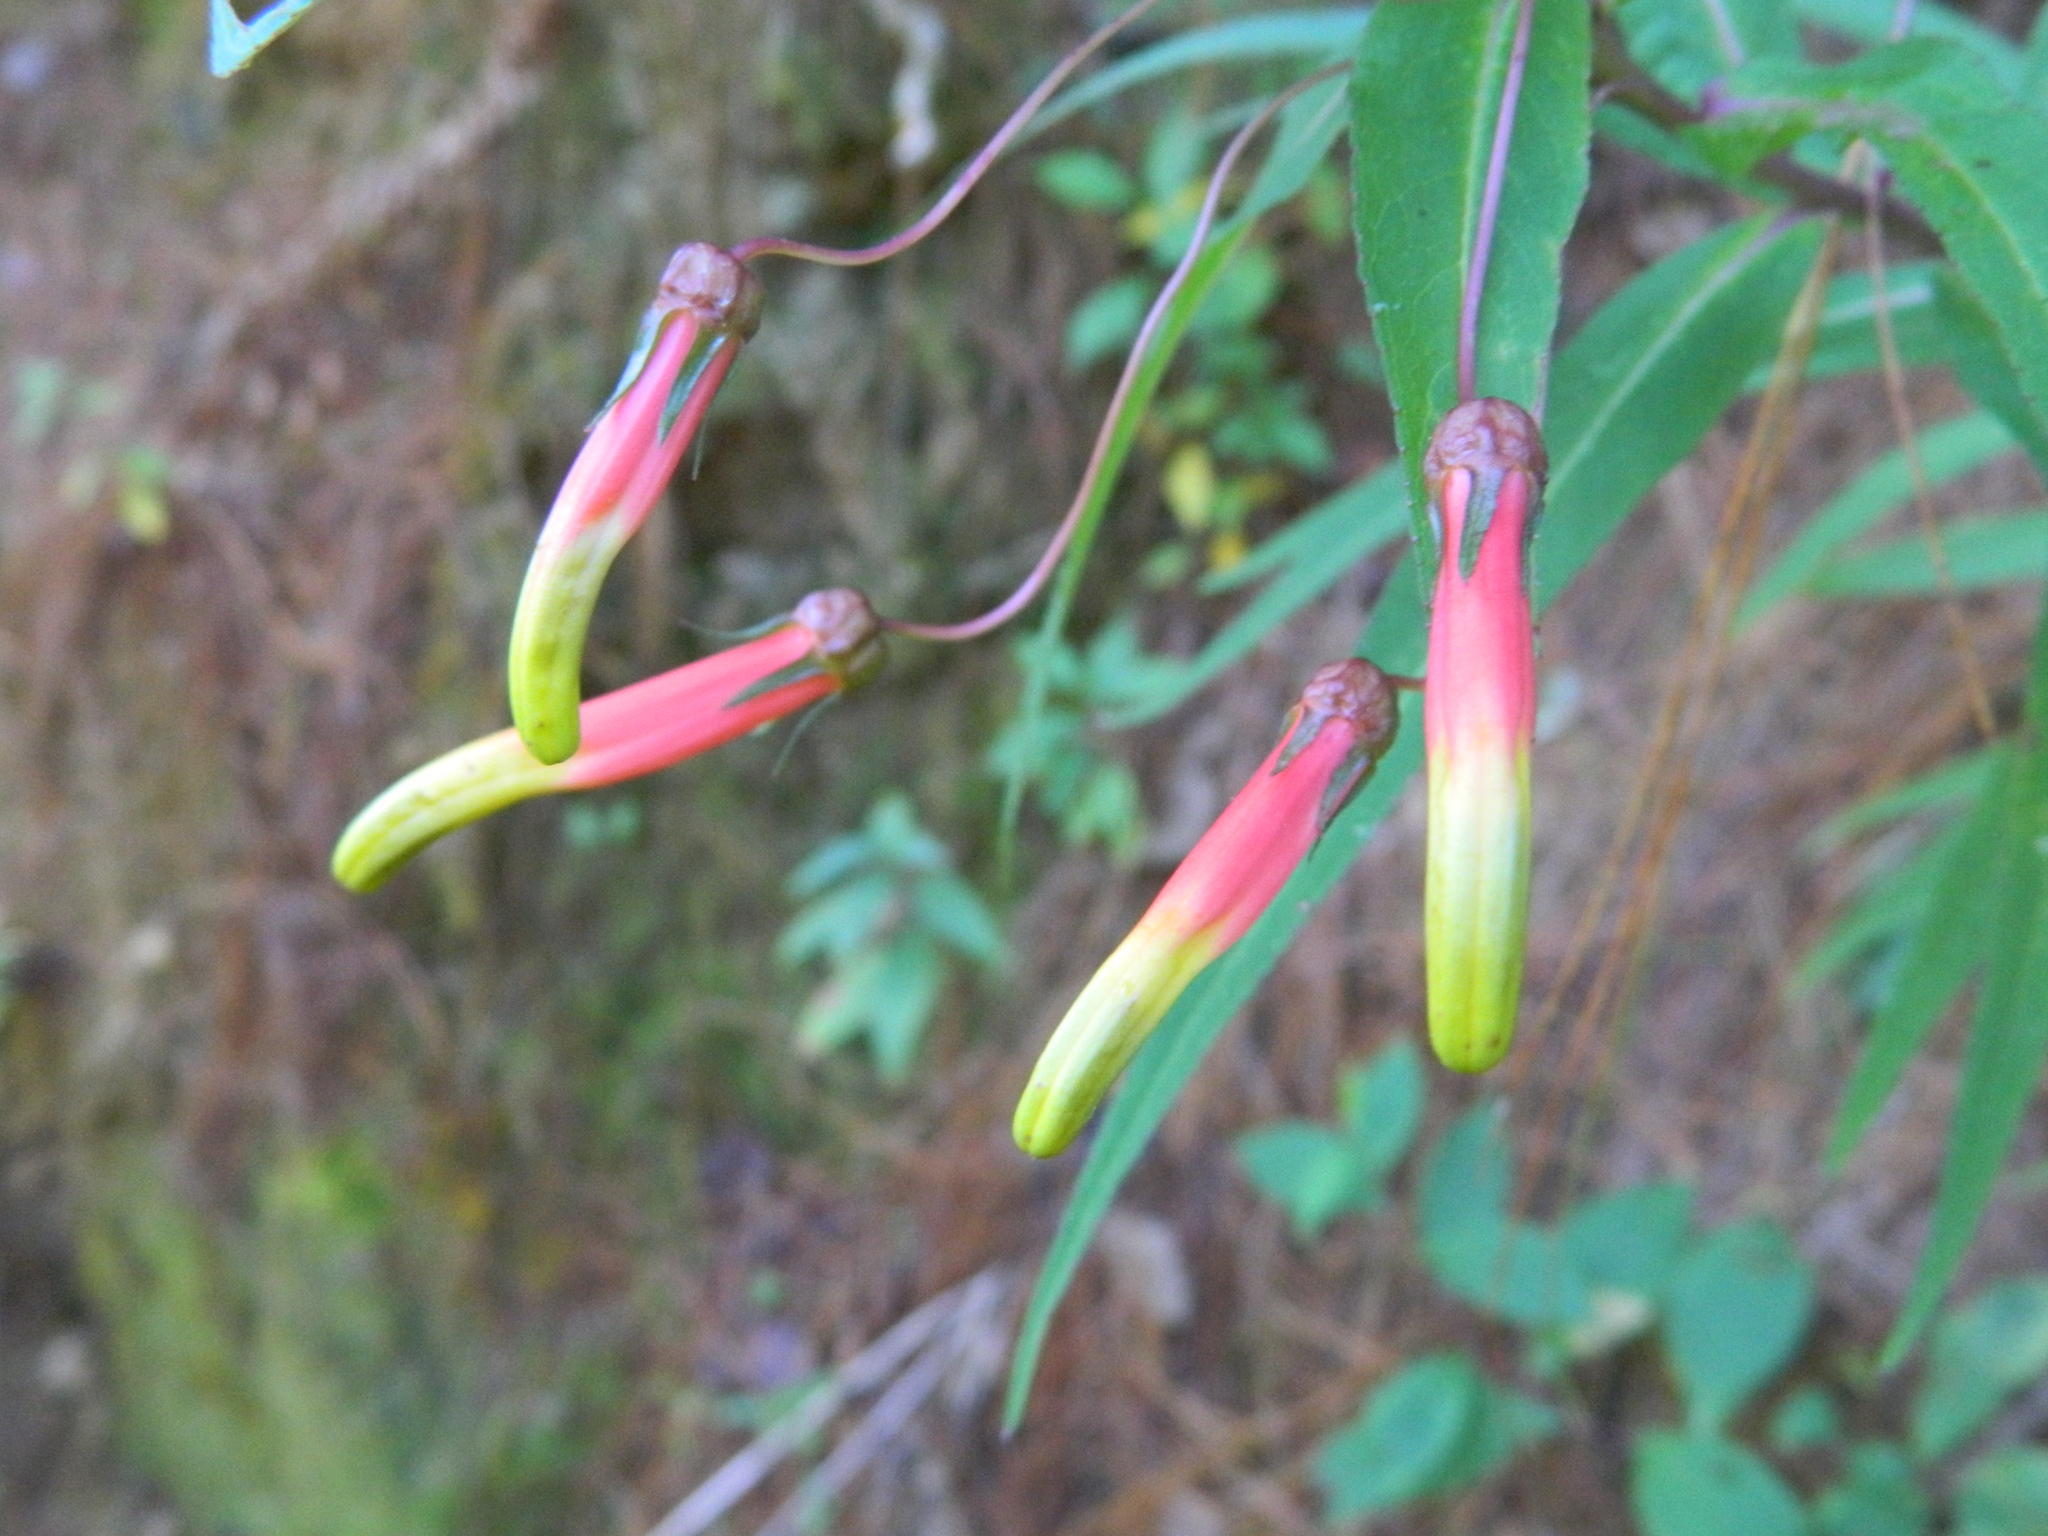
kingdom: Plantae
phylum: Tracheophyta
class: Magnoliopsida
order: Asterales
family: Campanulaceae
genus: Lobelia
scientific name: Lobelia laxiflora
